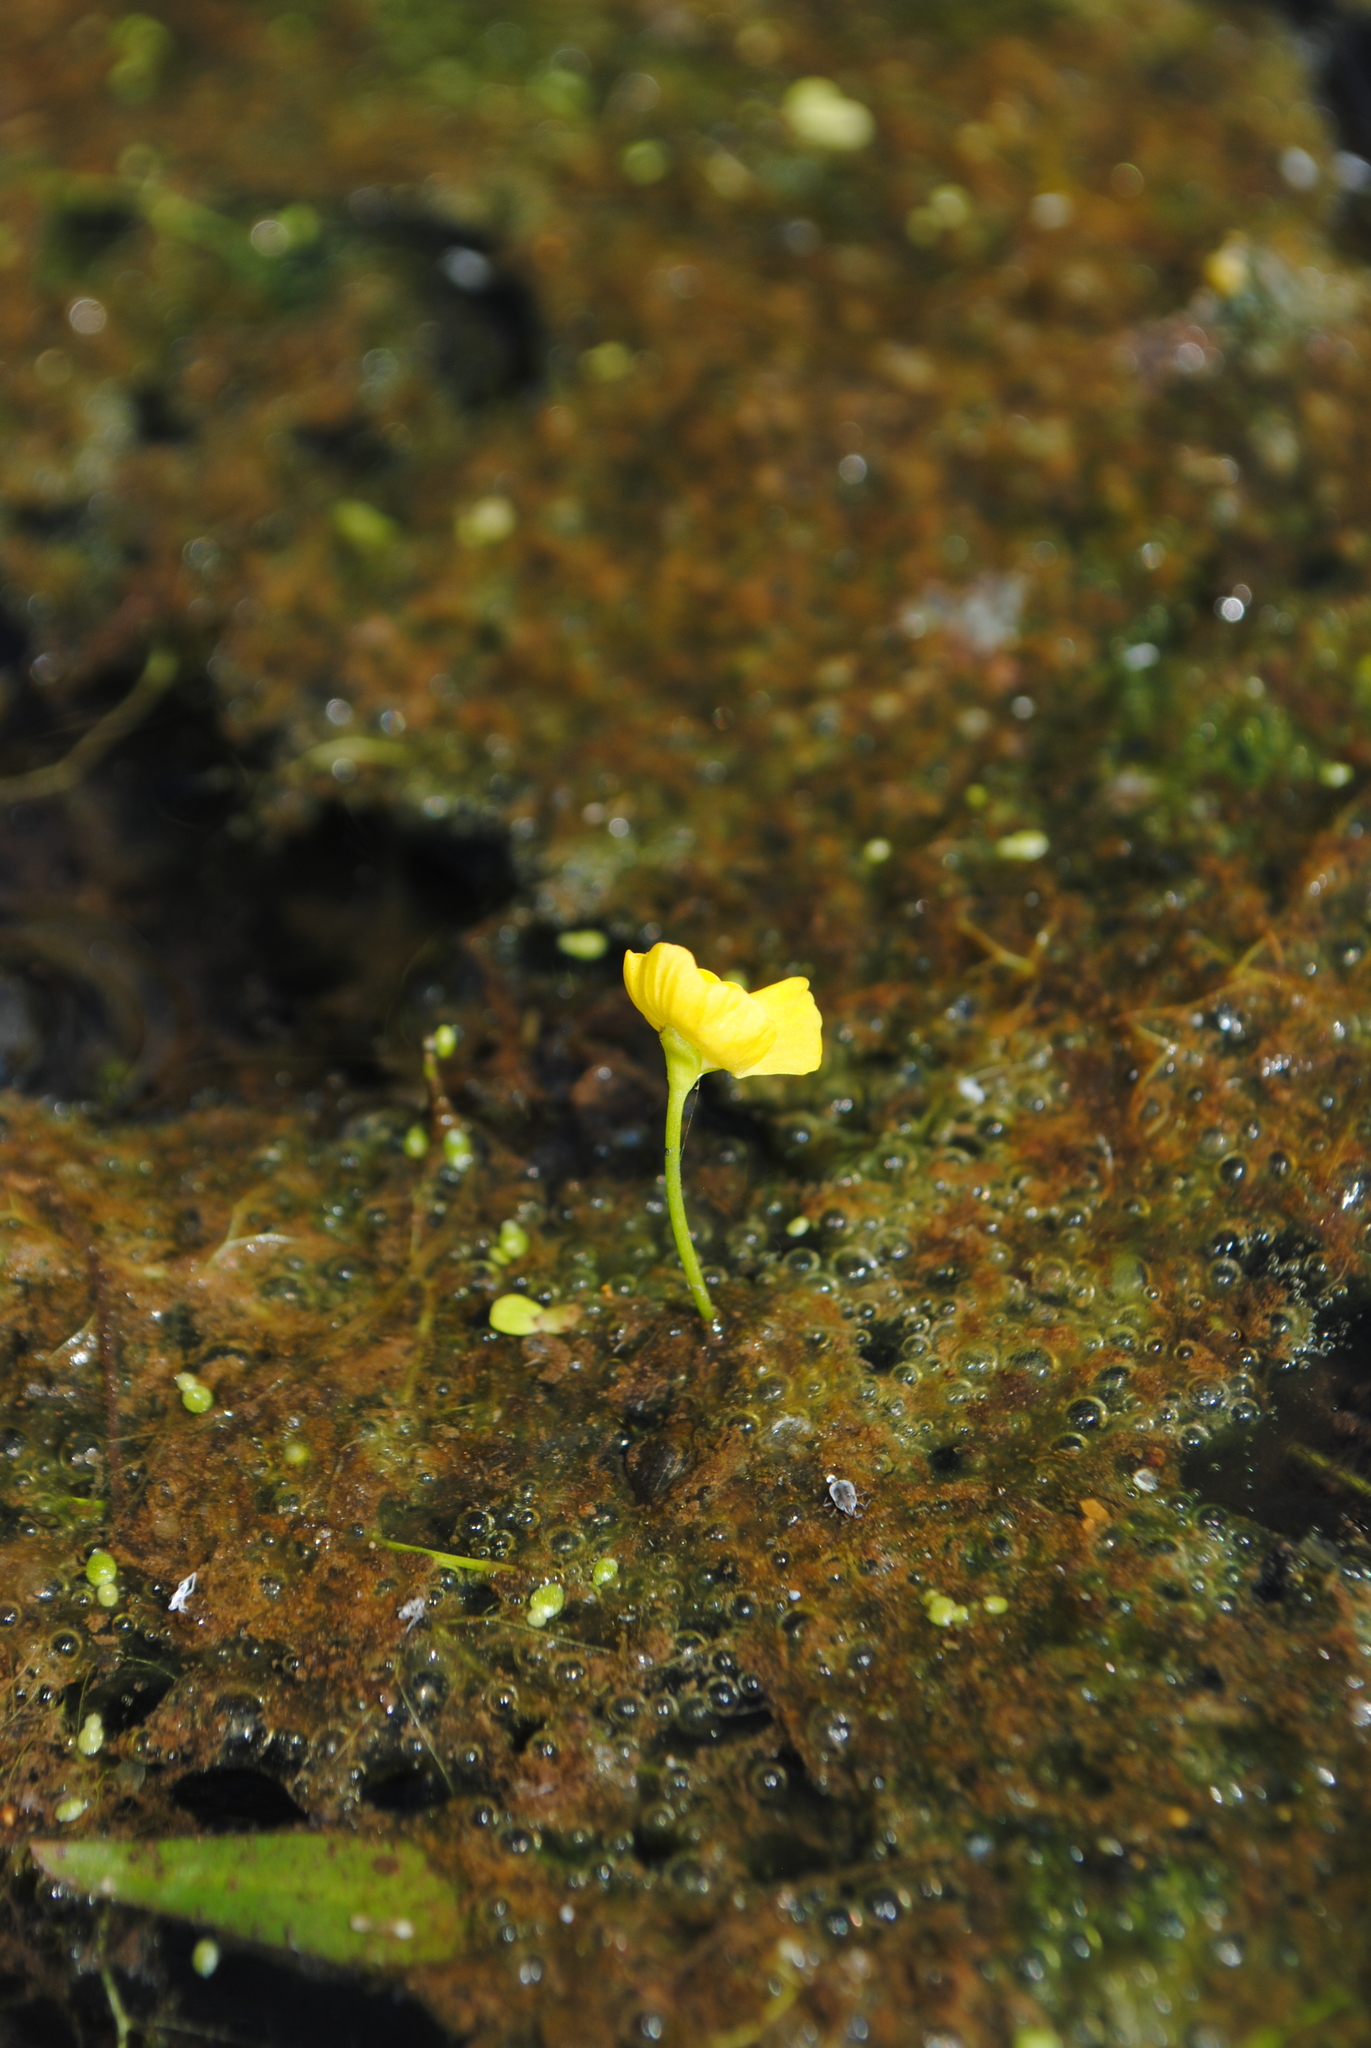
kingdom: Plantae
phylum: Tracheophyta
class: Magnoliopsida
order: Lamiales
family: Lentibulariaceae
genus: Utricularia
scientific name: Utricularia gibba
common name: Humped bladderwort
